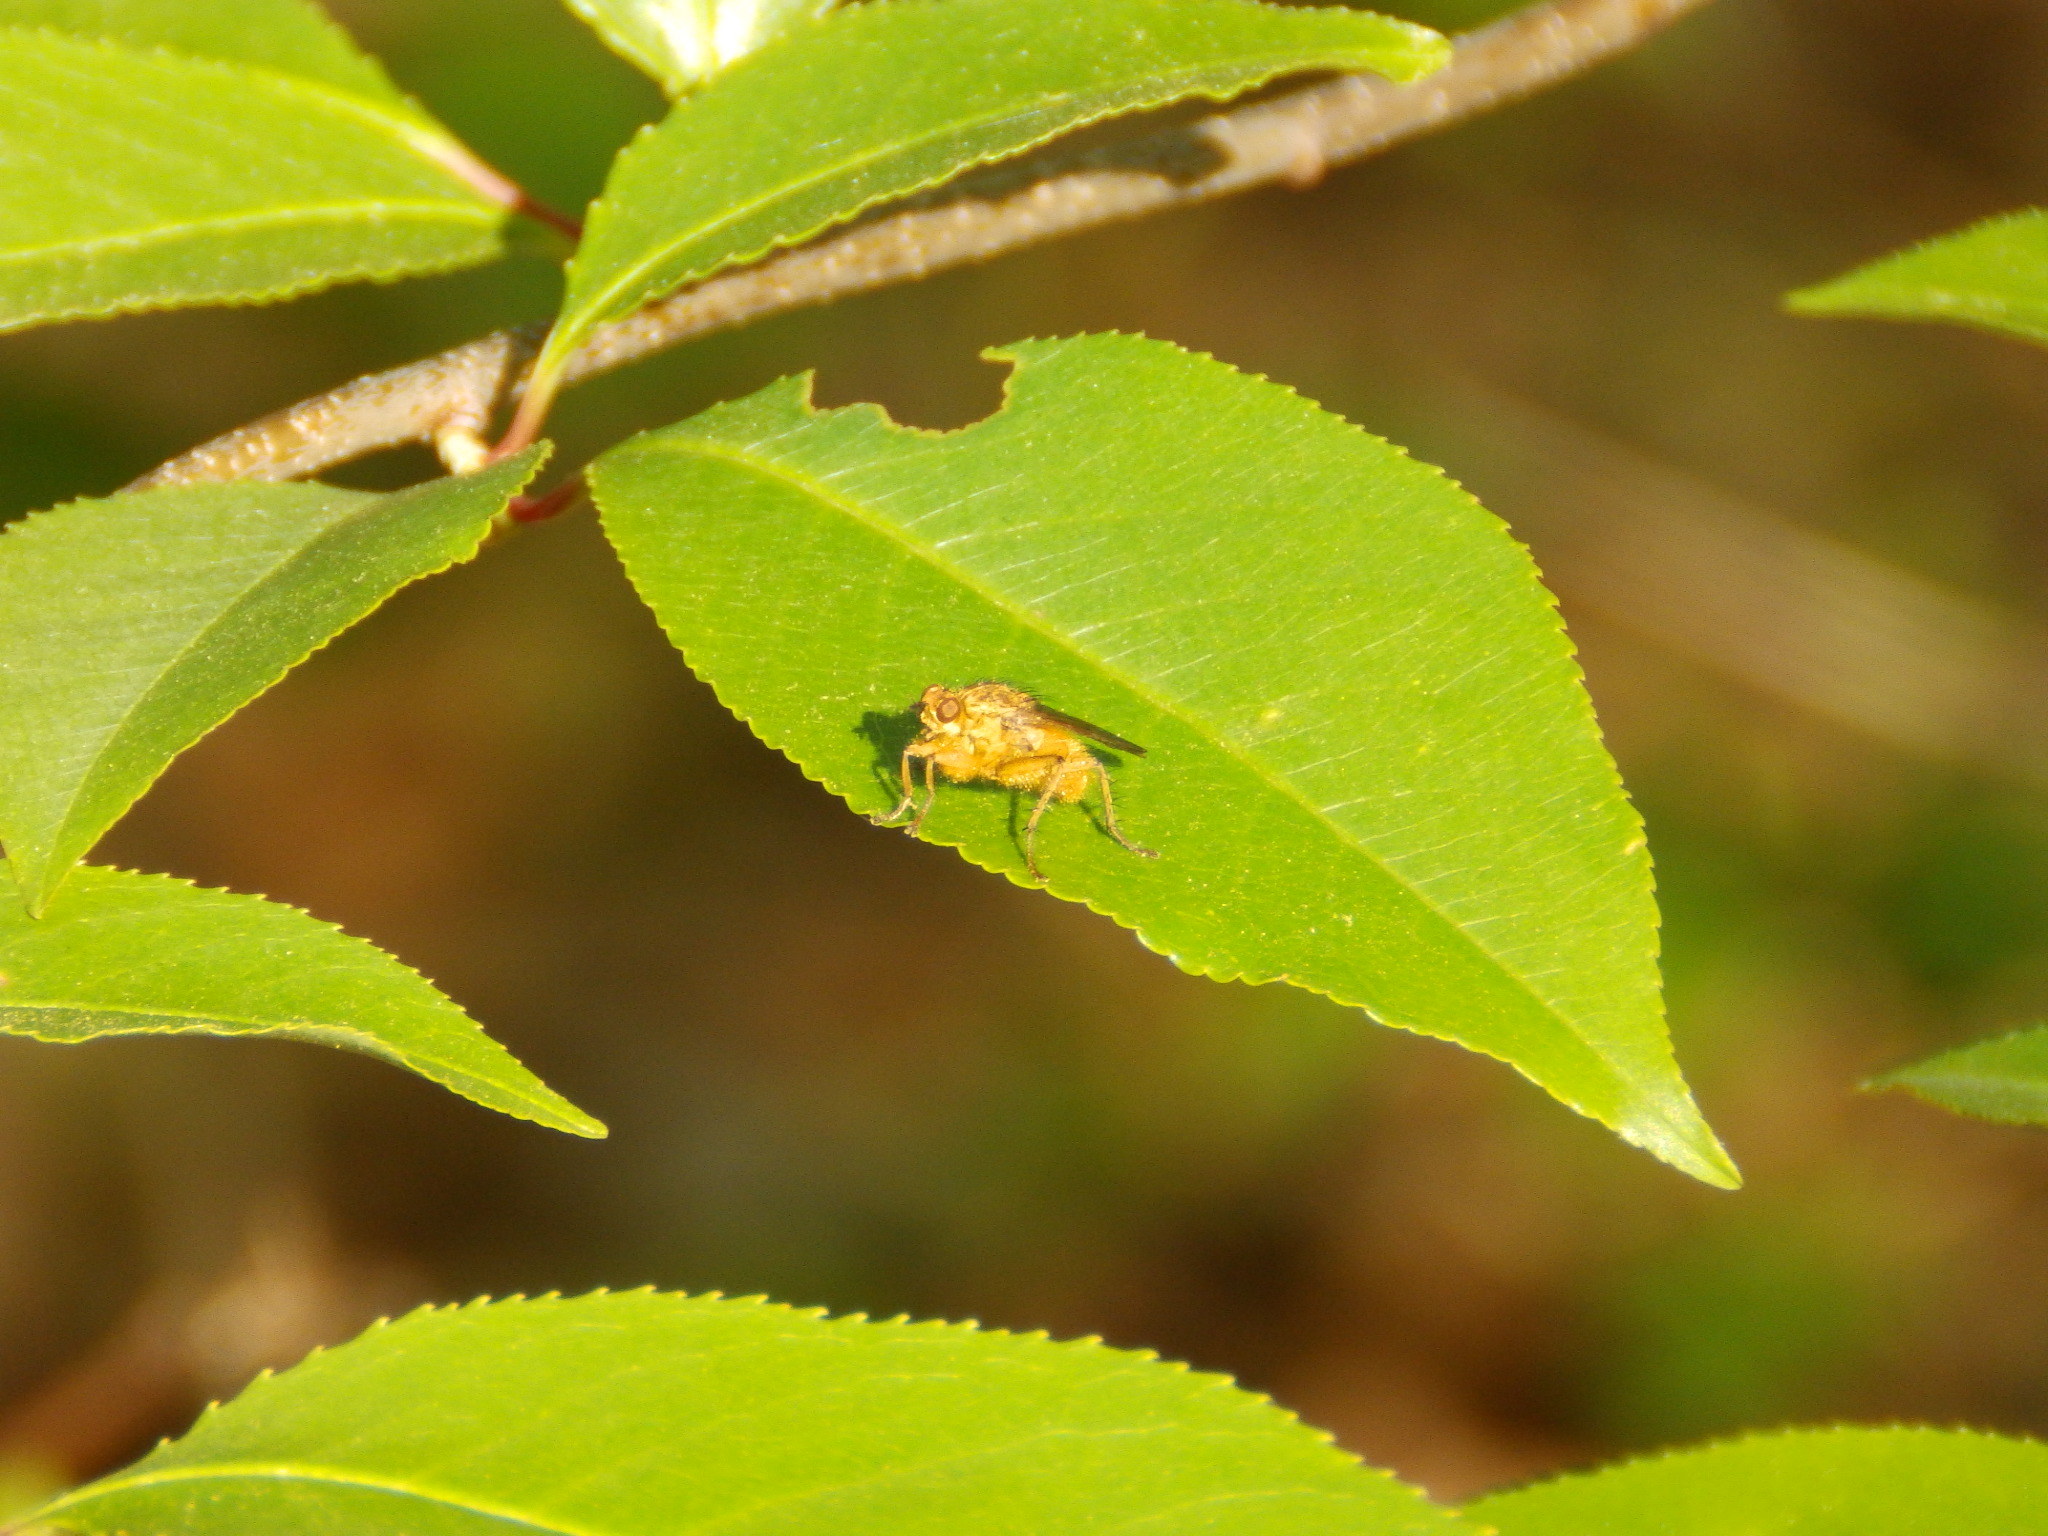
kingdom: Animalia
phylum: Arthropoda
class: Insecta
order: Diptera
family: Scathophagidae
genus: Scathophaga
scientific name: Scathophaga stercoraria
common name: Yellow dung fly
